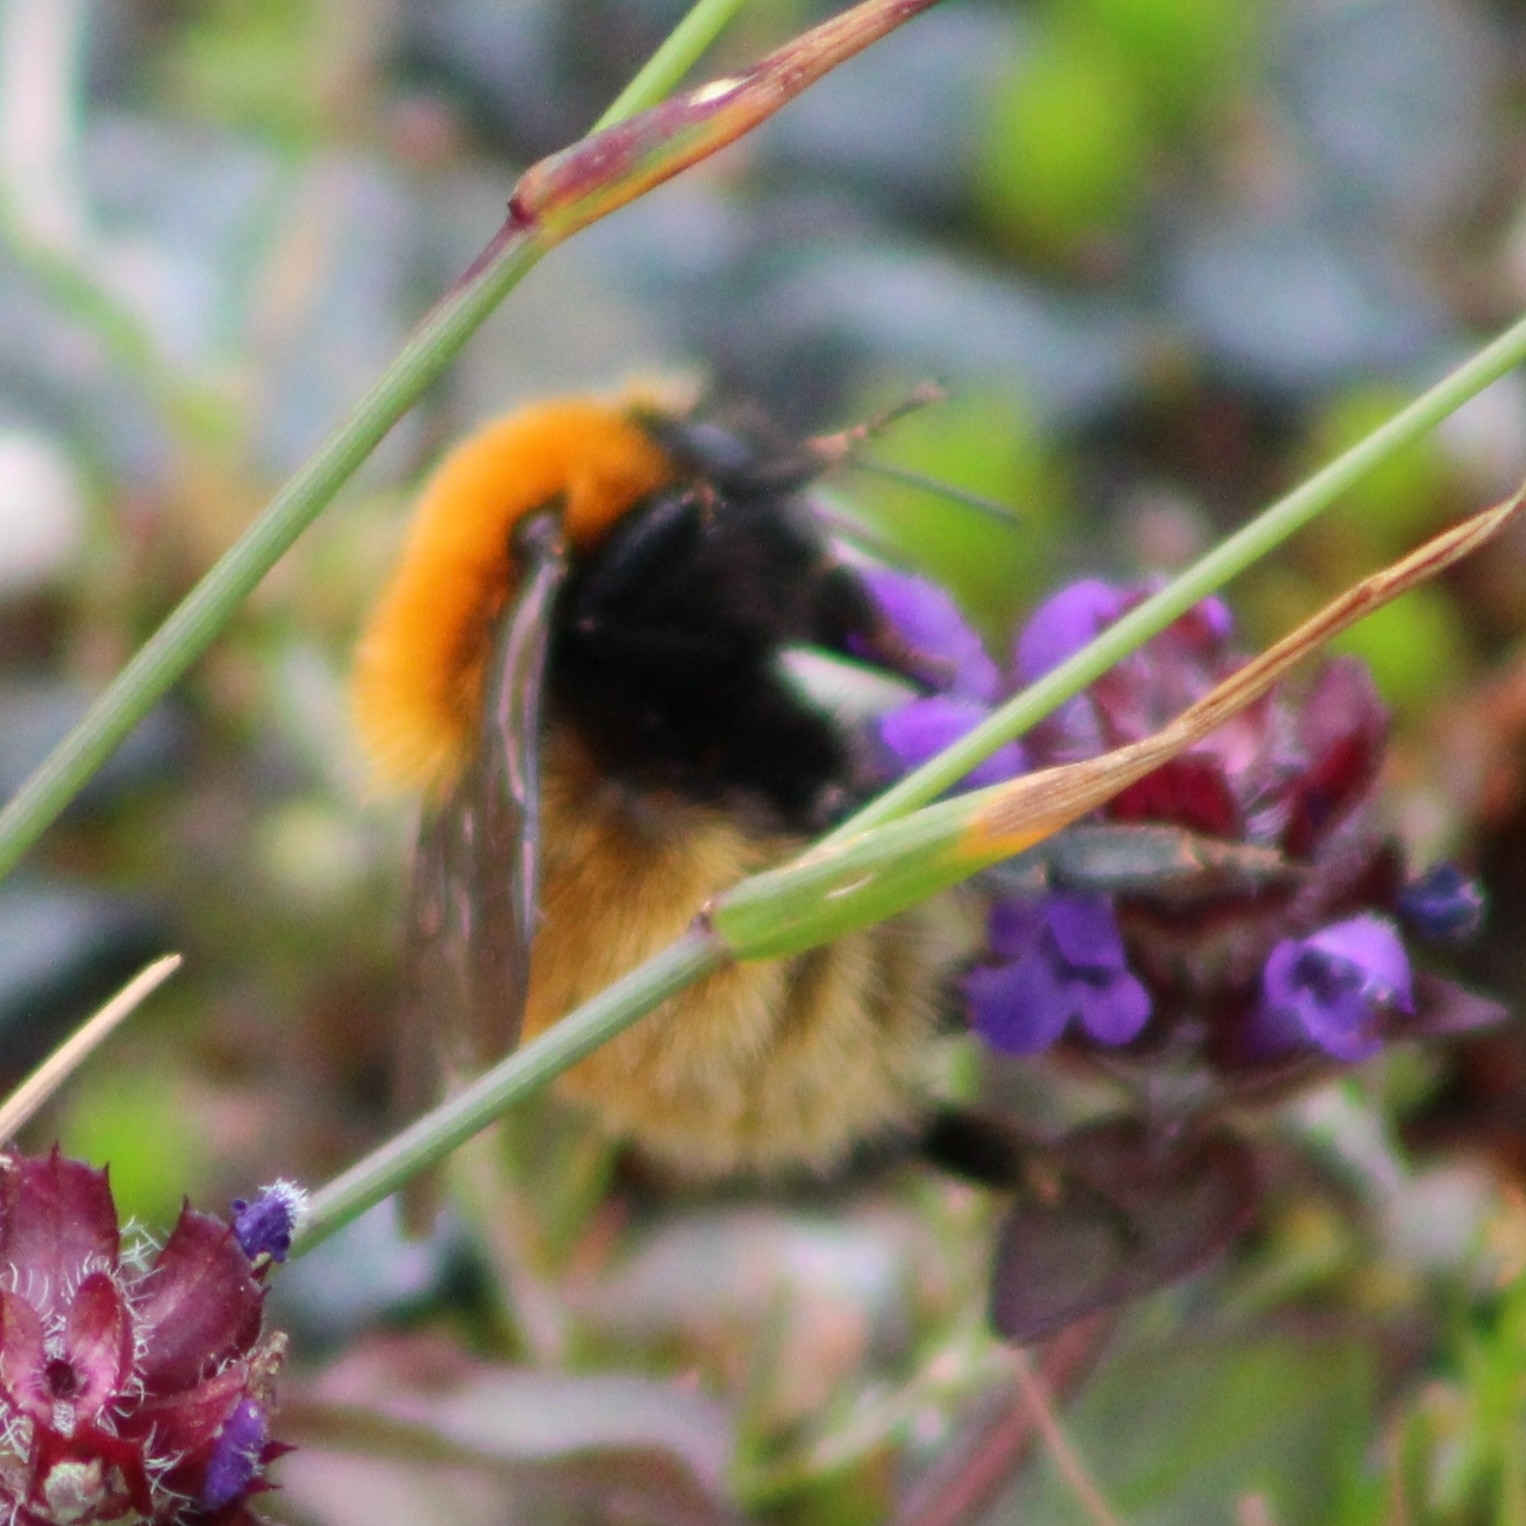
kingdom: Animalia
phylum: Arthropoda
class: Insecta
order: Hymenoptera
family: Apidae
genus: Bombus
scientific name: Bombus muscorum
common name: Moss carder-bee
